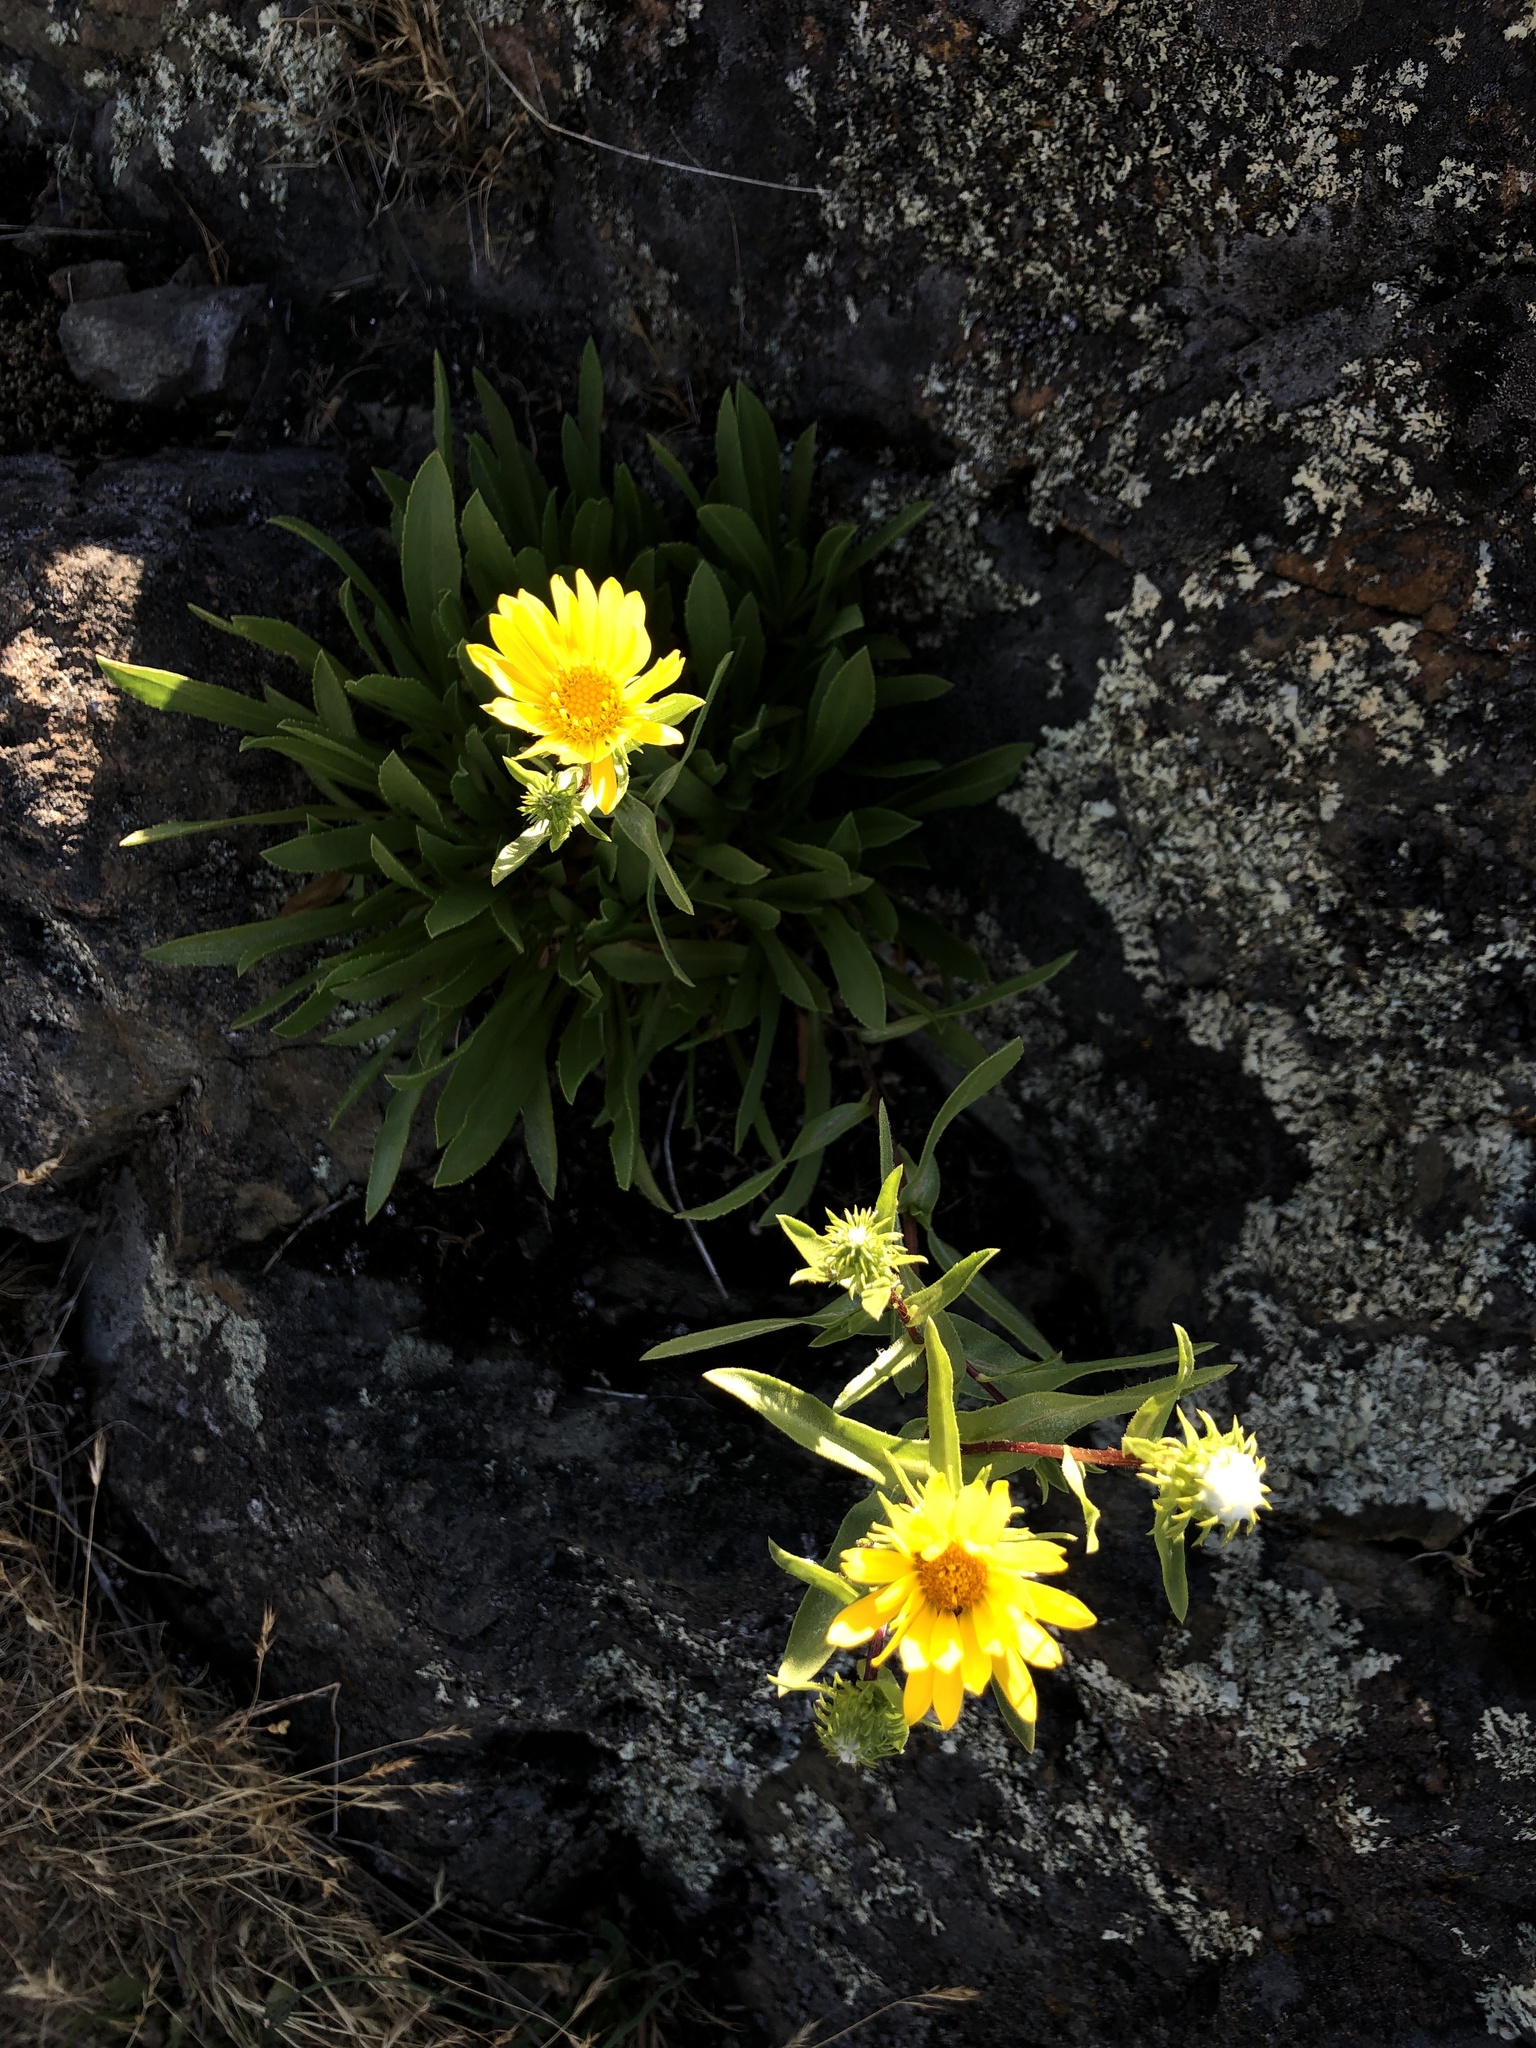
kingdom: Plantae
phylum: Tracheophyta
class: Magnoliopsida
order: Asterales
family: Asteraceae
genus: Grindelia
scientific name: Grindelia hirsutula
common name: Hairy gumweed
